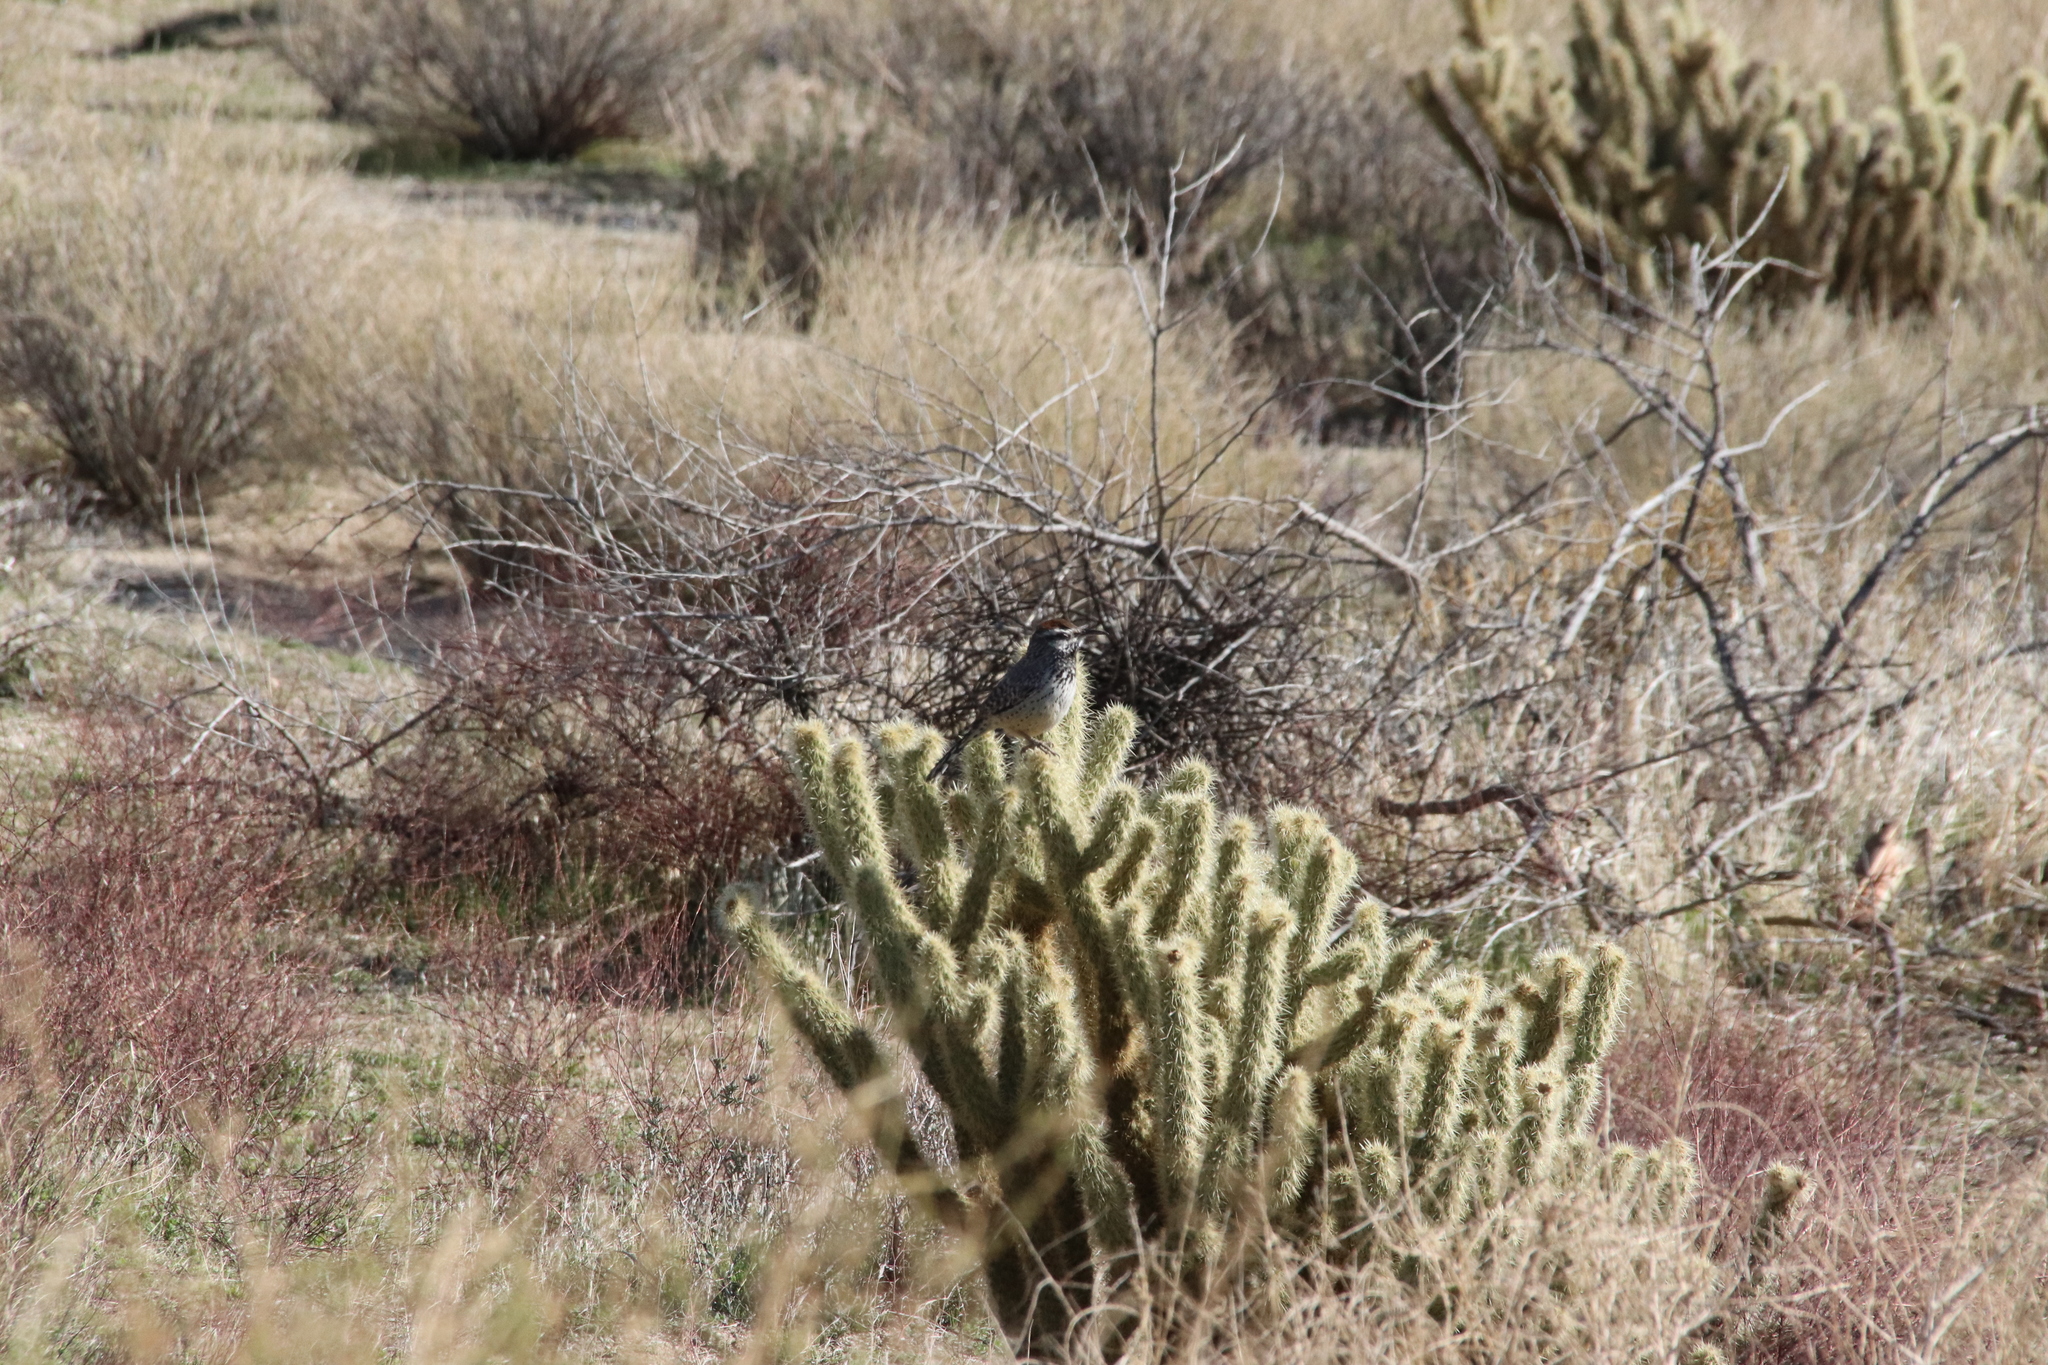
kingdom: Animalia
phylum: Chordata
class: Aves
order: Passeriformes
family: Troglodytidae
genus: Campylorhynchus
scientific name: Campylorhynchus brunneicapillus
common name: Cactus wren
